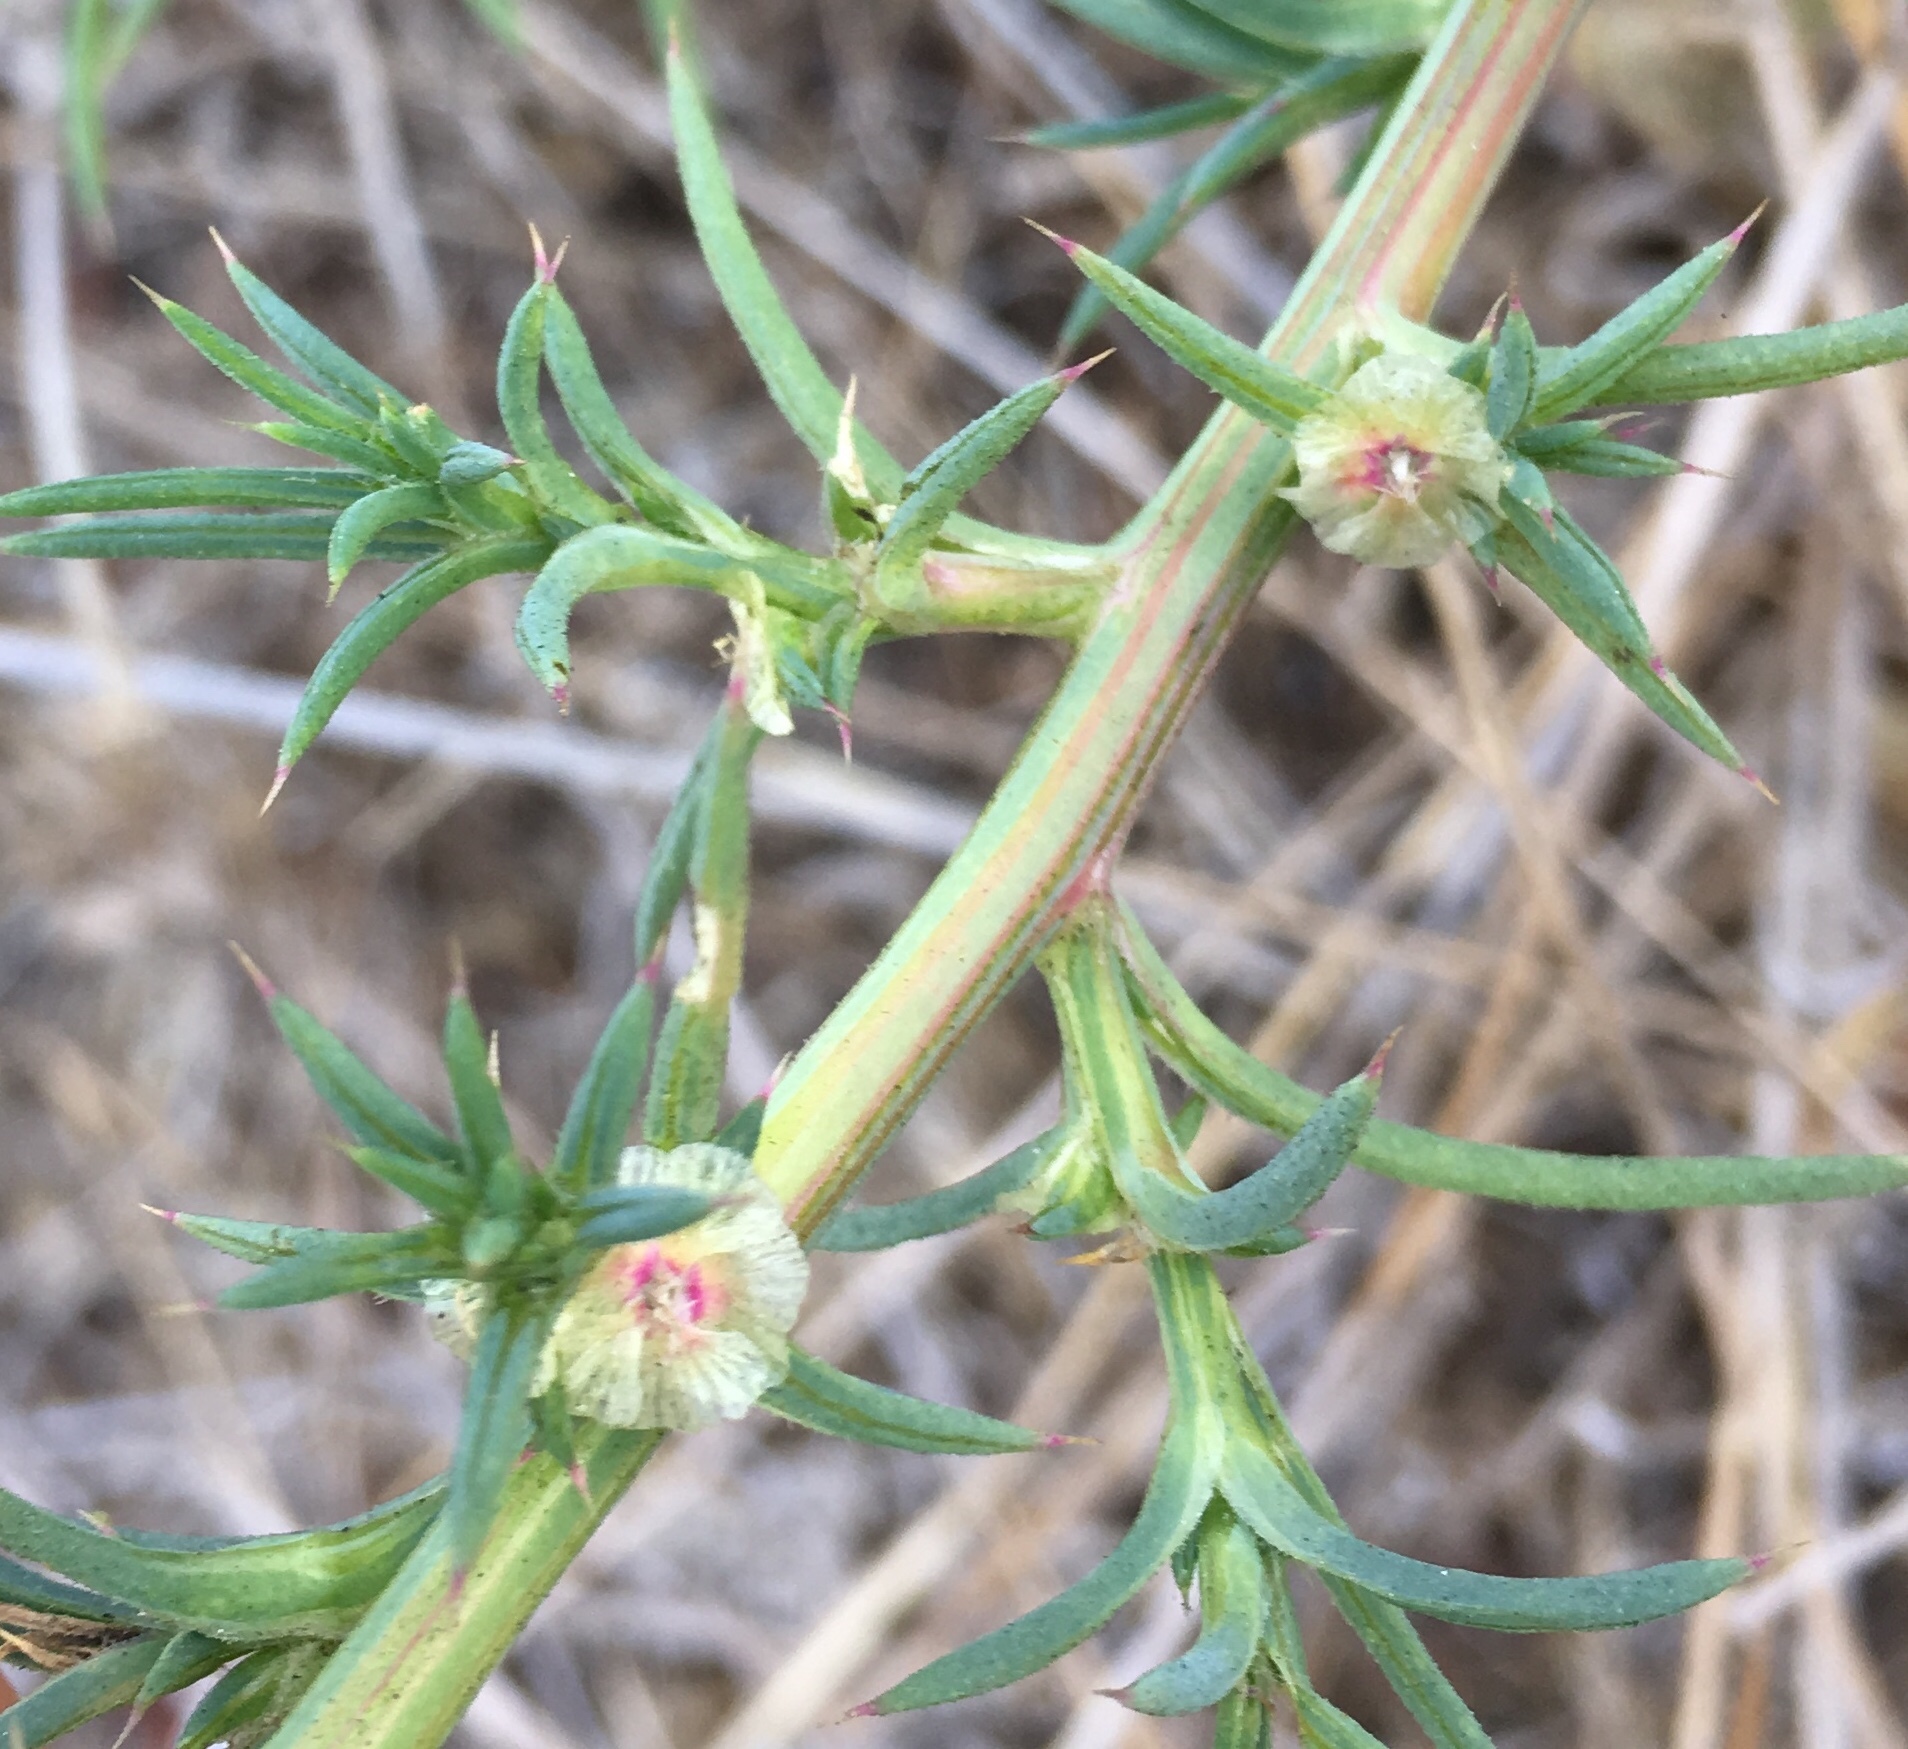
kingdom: Plantae
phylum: Tracheophyta
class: Magnoliopsida
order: Caryophyllales
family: Amaranthaceae
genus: Salsola
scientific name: Salsola australis
